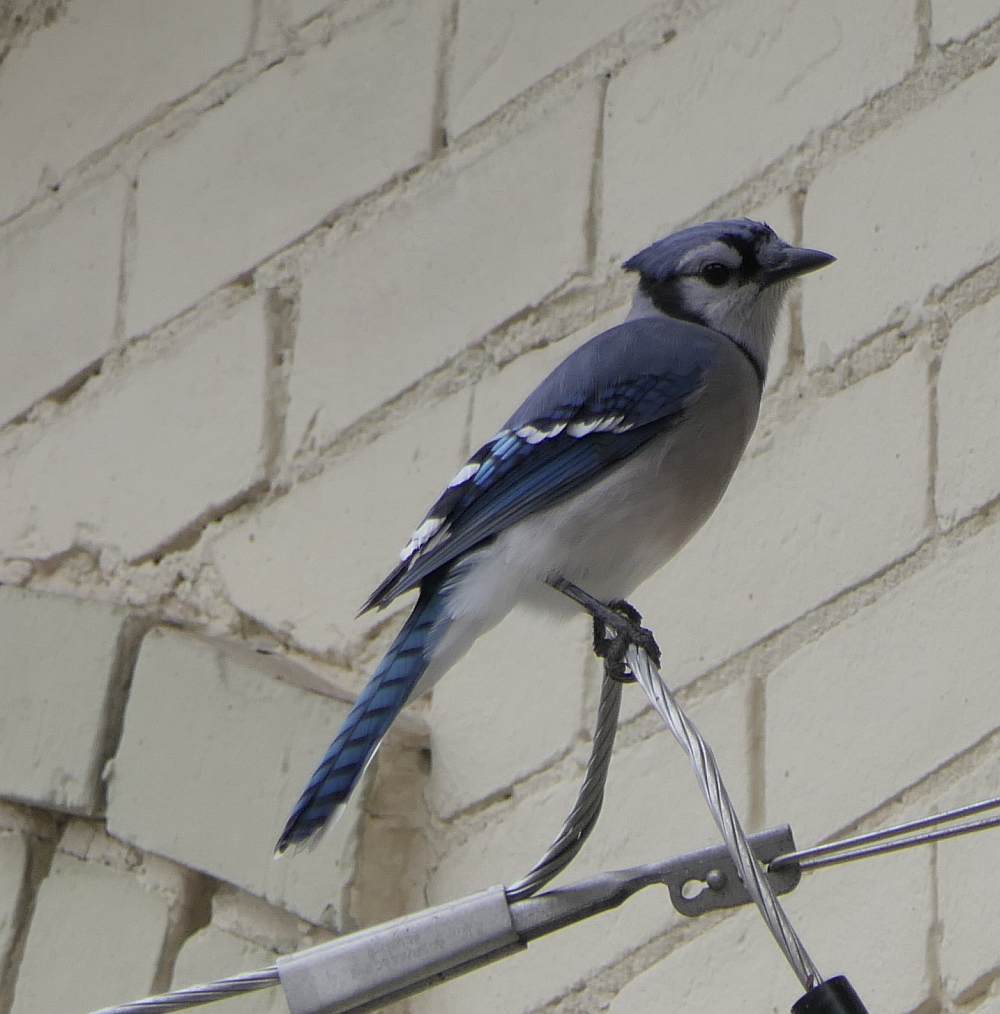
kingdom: Animalia
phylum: Chordata
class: Aves
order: Passeriformes
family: Corvidae
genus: Cyanocitta
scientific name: Cyanocitta cristata
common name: Blue jay
